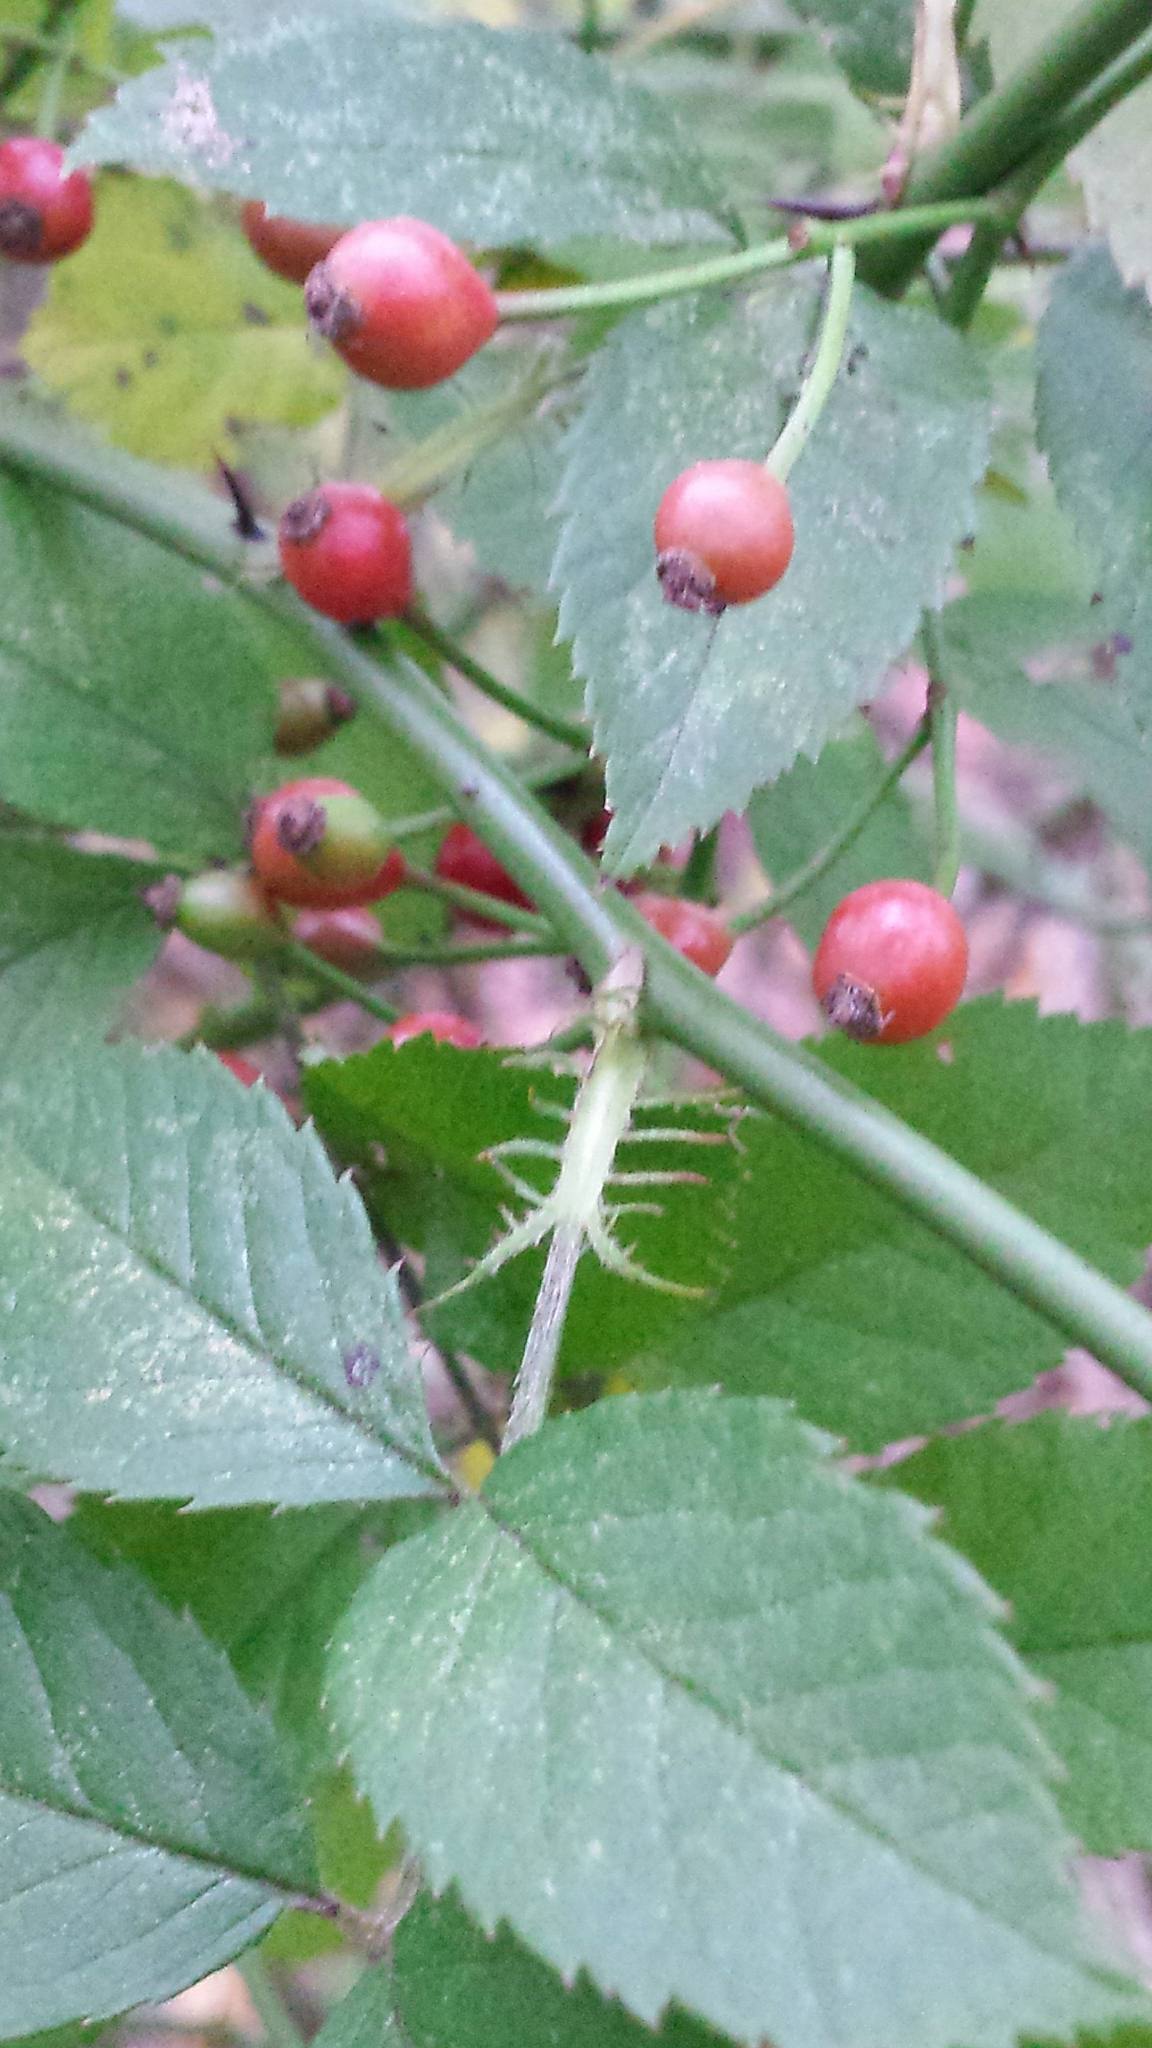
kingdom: Plantae
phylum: Tracheophyta
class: Magnoliopsida
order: Rosales
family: Rosaceae
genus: Rosa
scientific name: Rosa multiflora
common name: Multiflora rose
